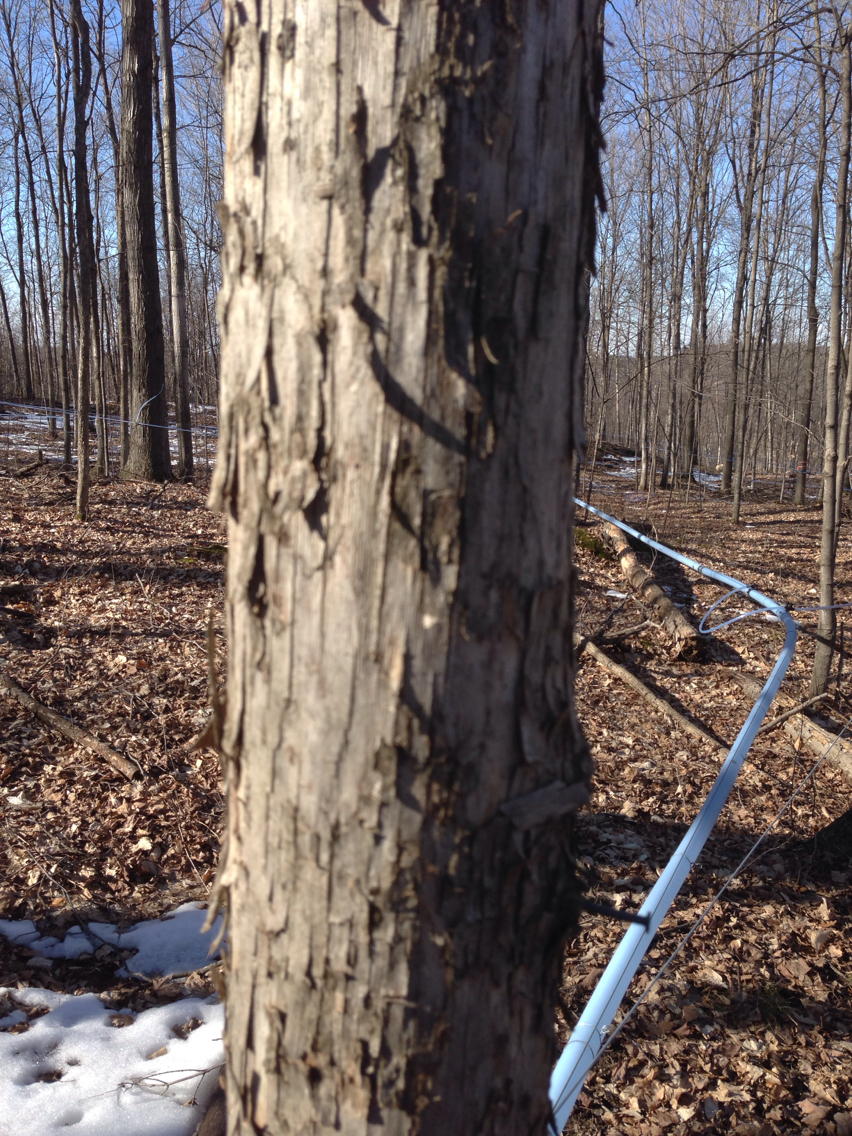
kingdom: Plantae
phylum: Tracheophyta
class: Magnoliopsida
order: Fagales
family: Betulaceae
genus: Ostrya
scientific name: Ostrya virginiana
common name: Ironwood
